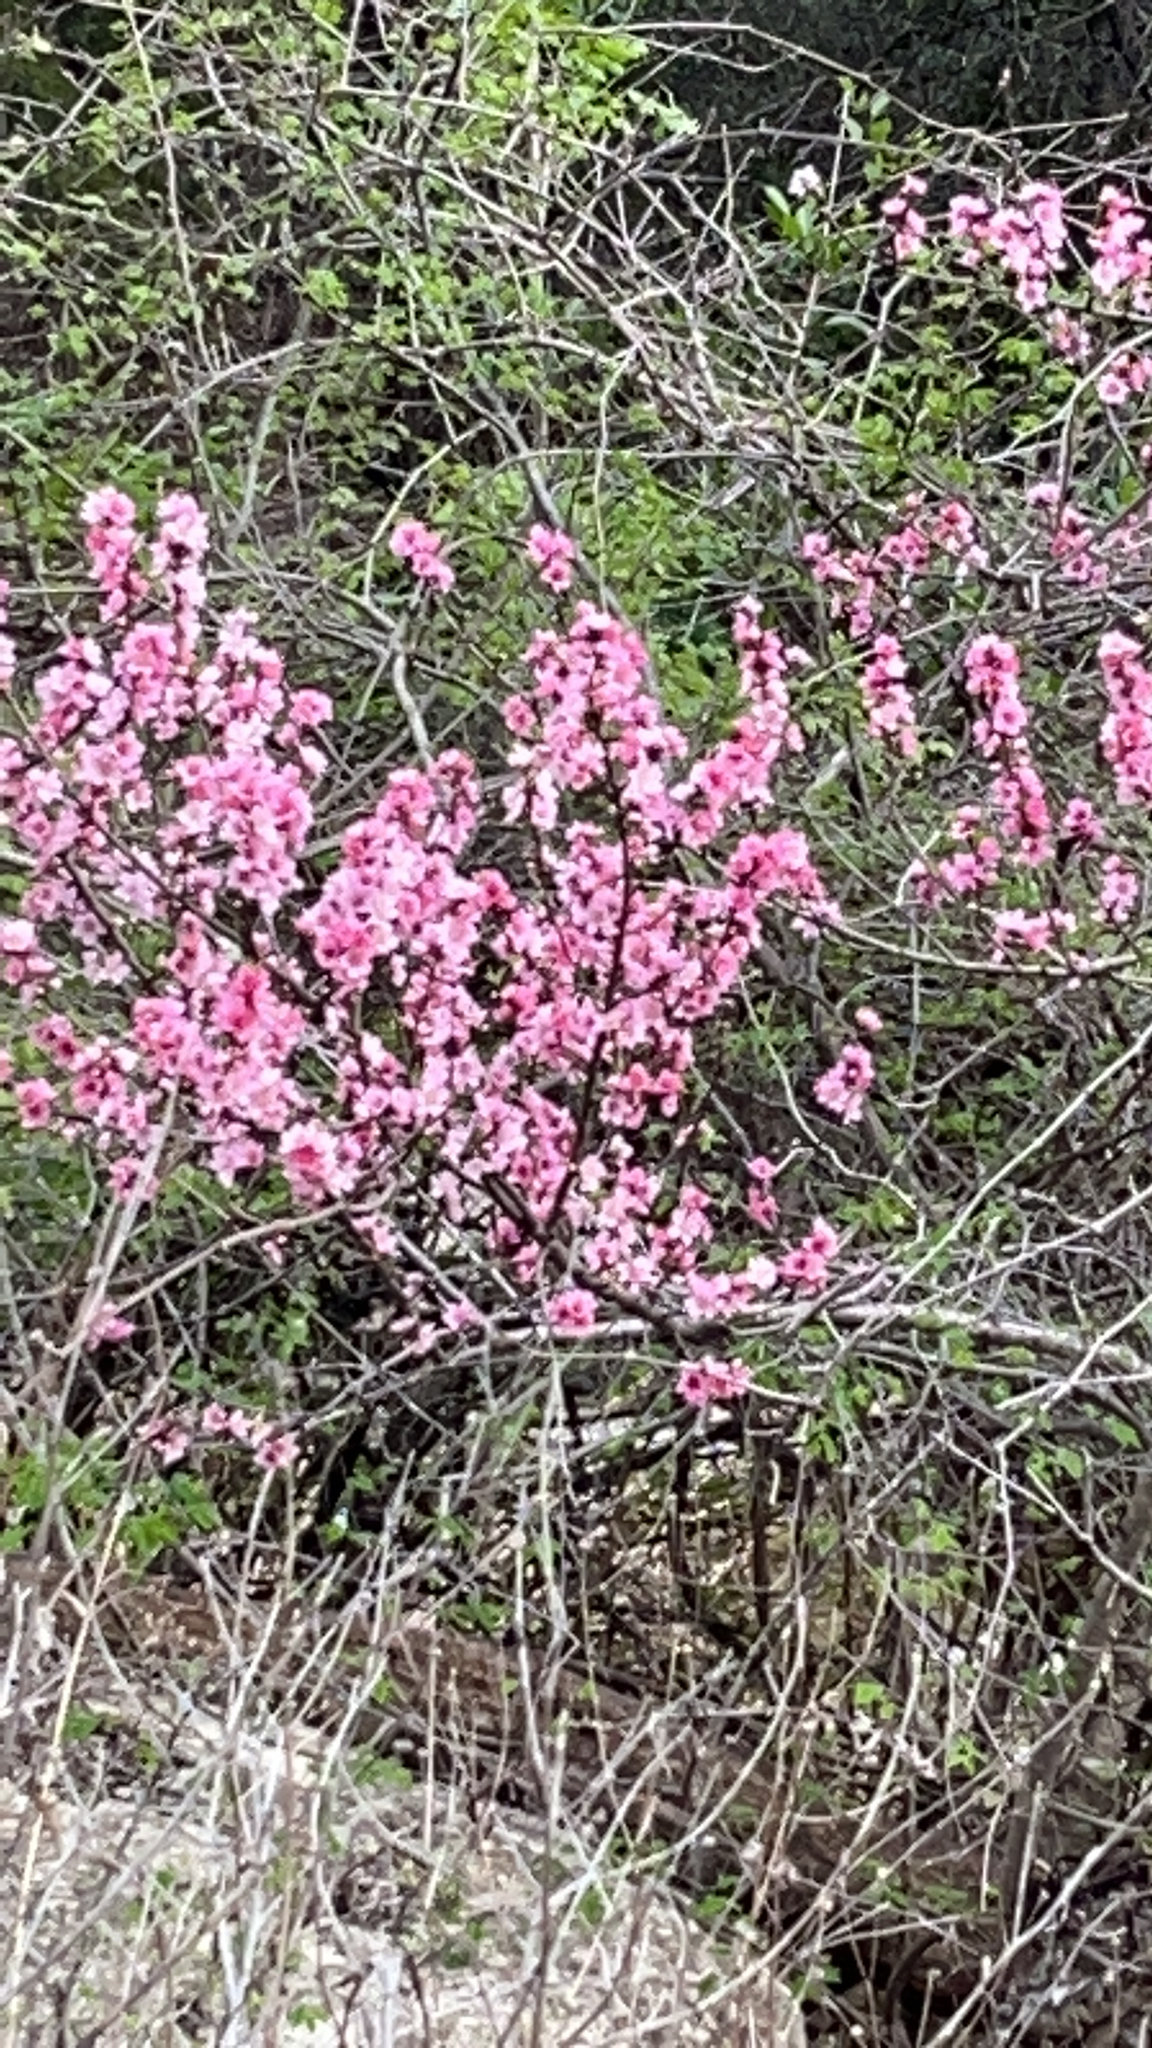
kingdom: Plantae
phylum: Tracheophyta
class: Magnoliopsida
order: Rosales
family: Rosaceae
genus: Prunus
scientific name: Prunus persica
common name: Peach
